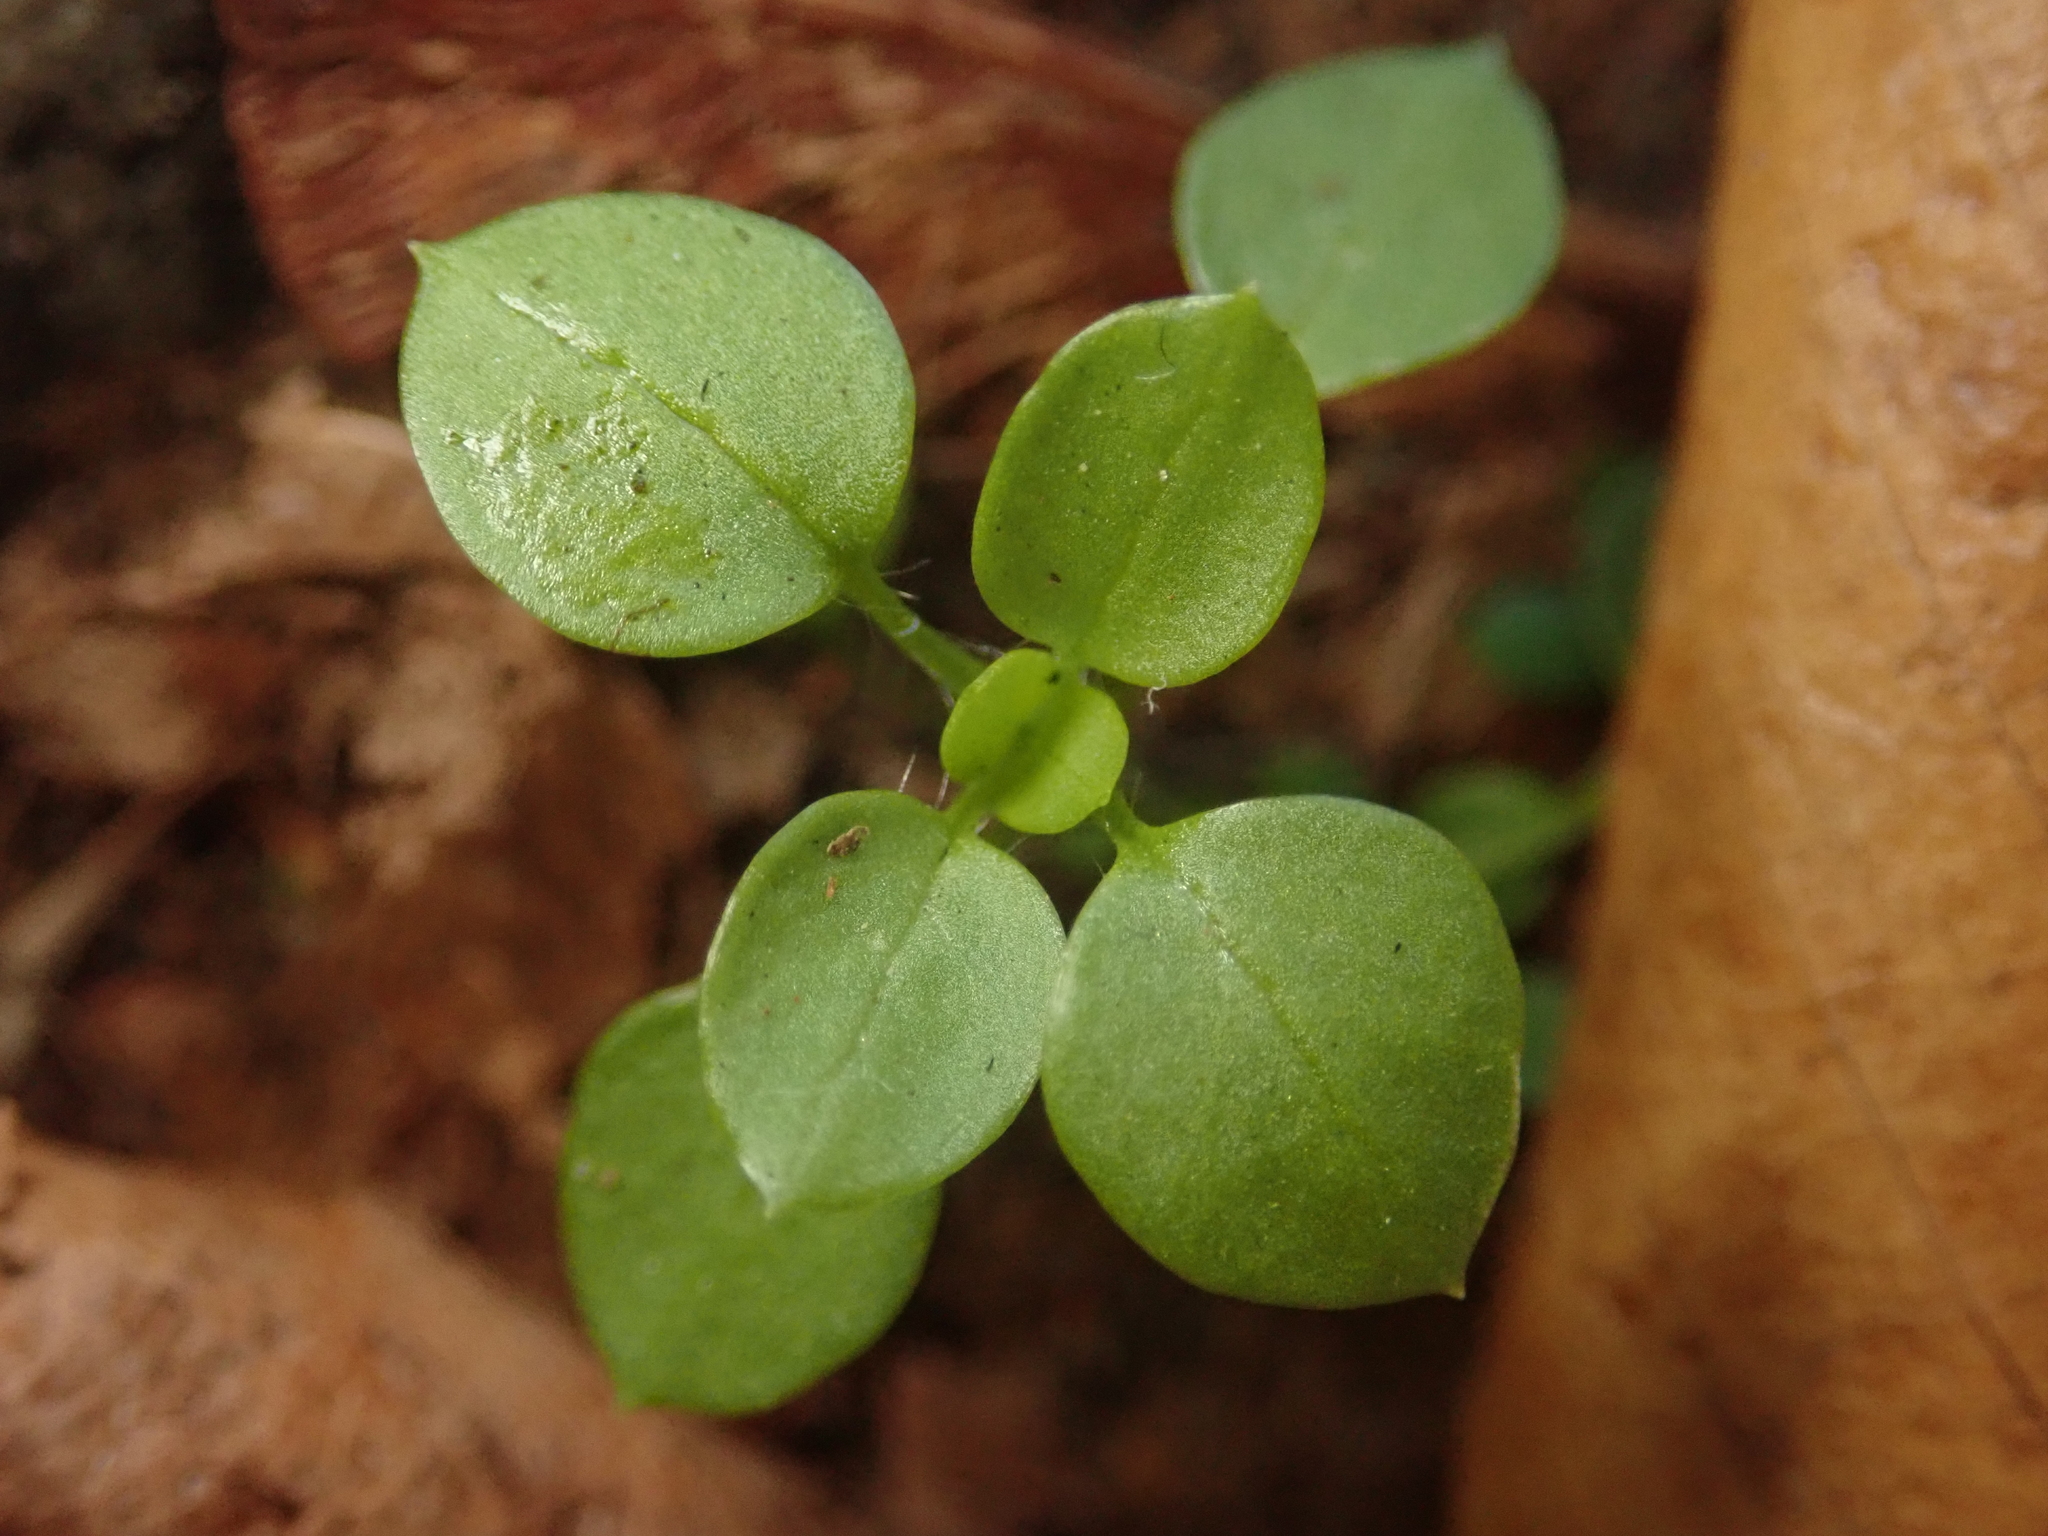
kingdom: Plantae
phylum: Tracheophyta
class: Magnoliopsida
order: Caryophyllales
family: Caryophyllaceae
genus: Stellaria
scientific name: Stellaria media
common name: Common chickweed
